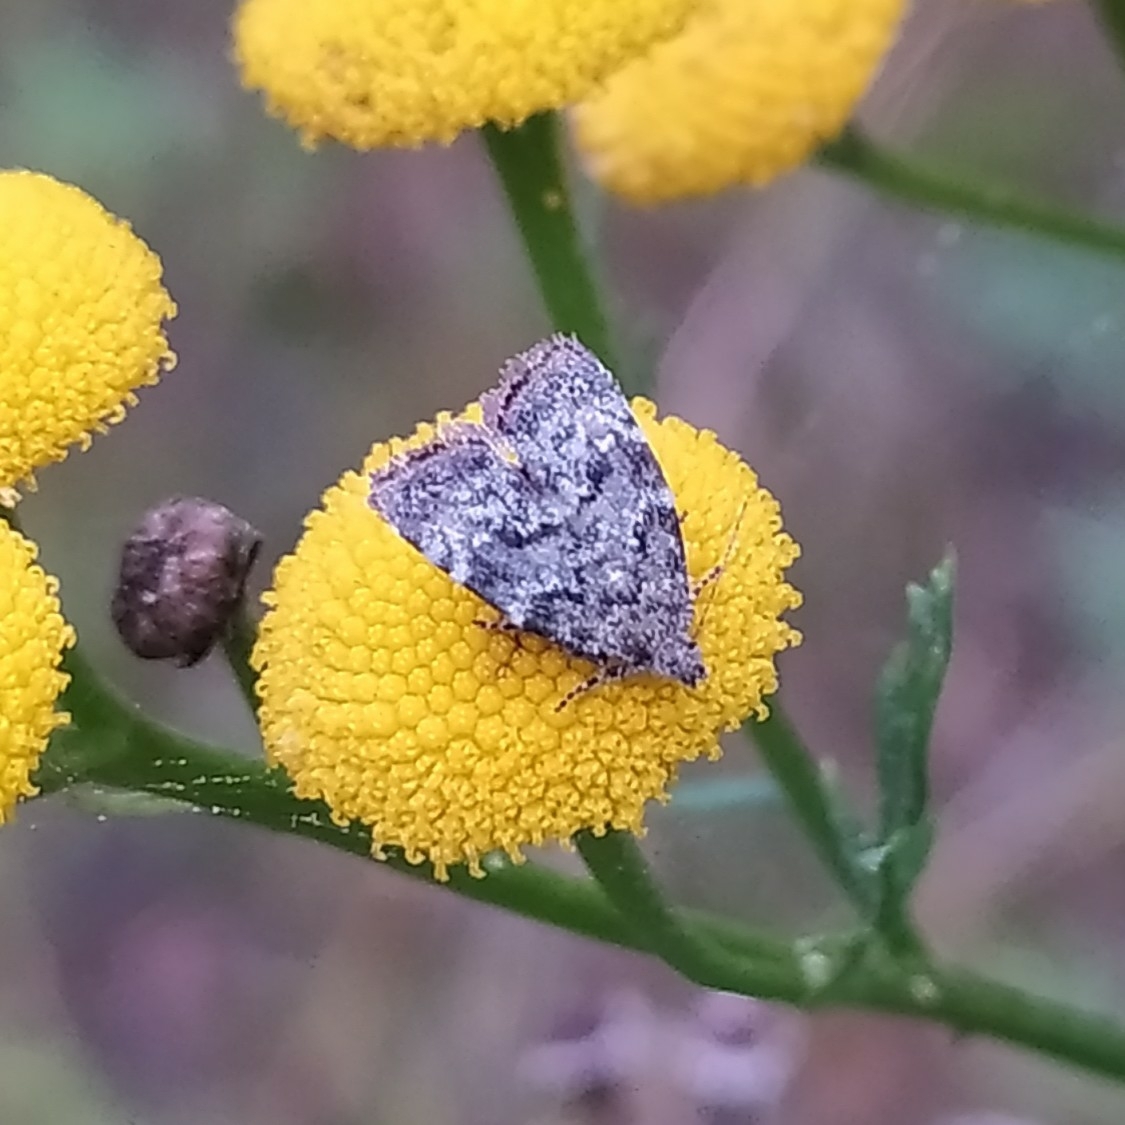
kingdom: Animalia
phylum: Arthropoda
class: Insecta
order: Lepidoptera
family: Choreutidae
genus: Choreutis
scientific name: Choreutis diana
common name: Inverness twitcher
